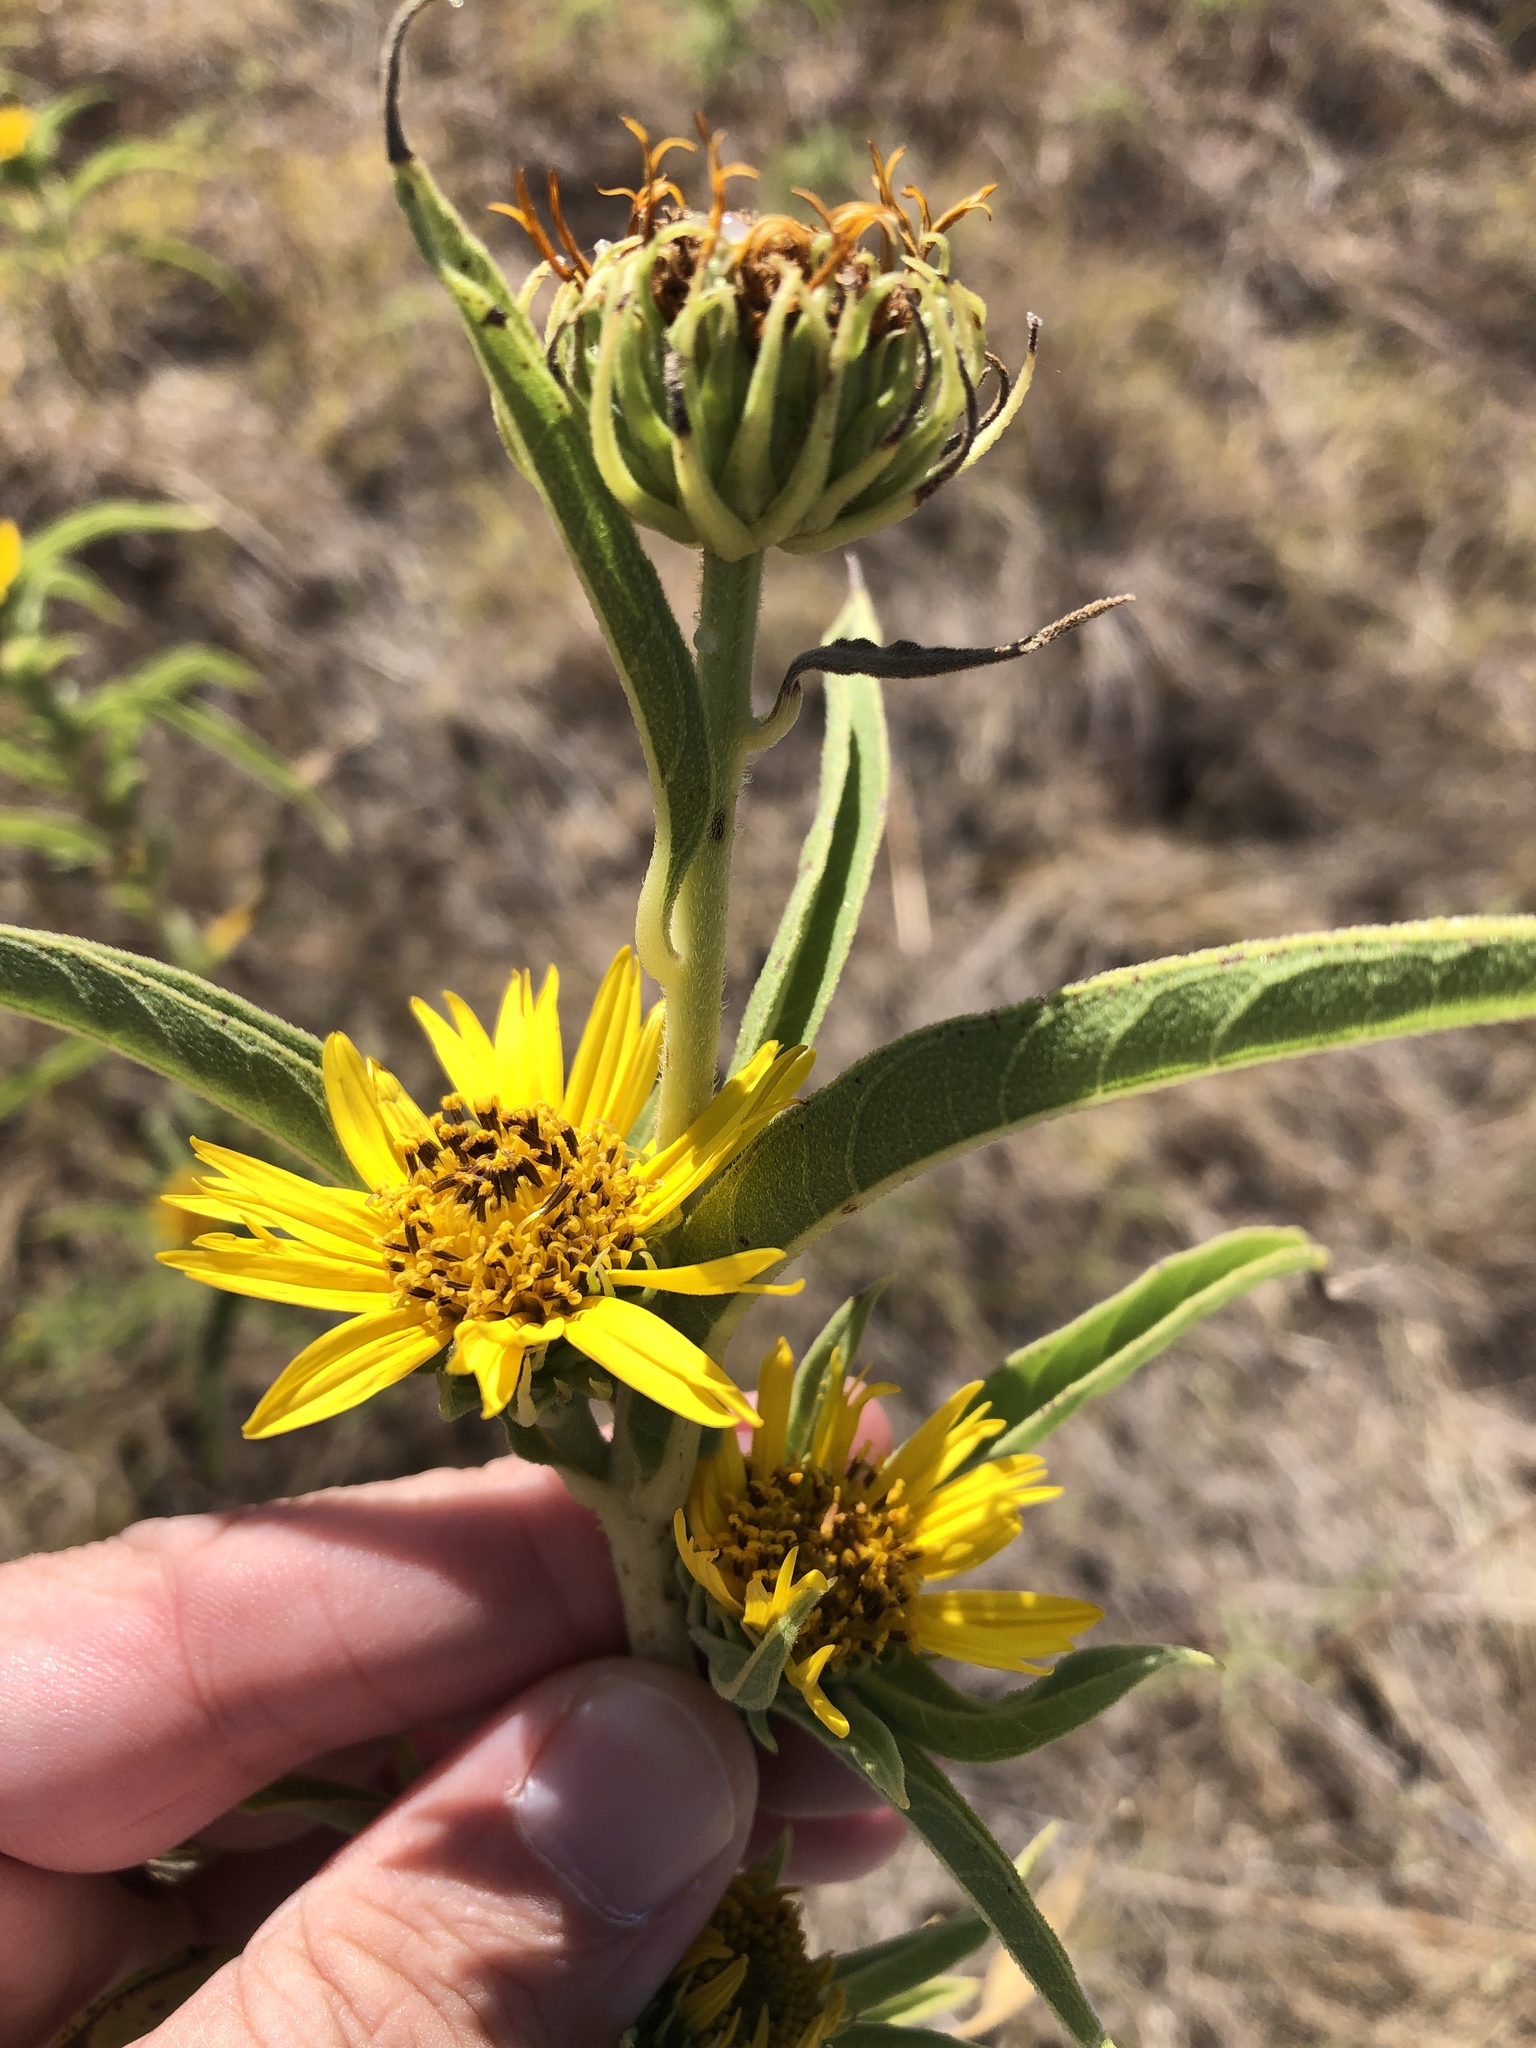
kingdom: Plantae
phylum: Tracheophyta
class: Magnoliopsida
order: Asterales
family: Asteraceae
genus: Helianthus
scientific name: Helianthus maximiliani
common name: Maximilian's sunflower
